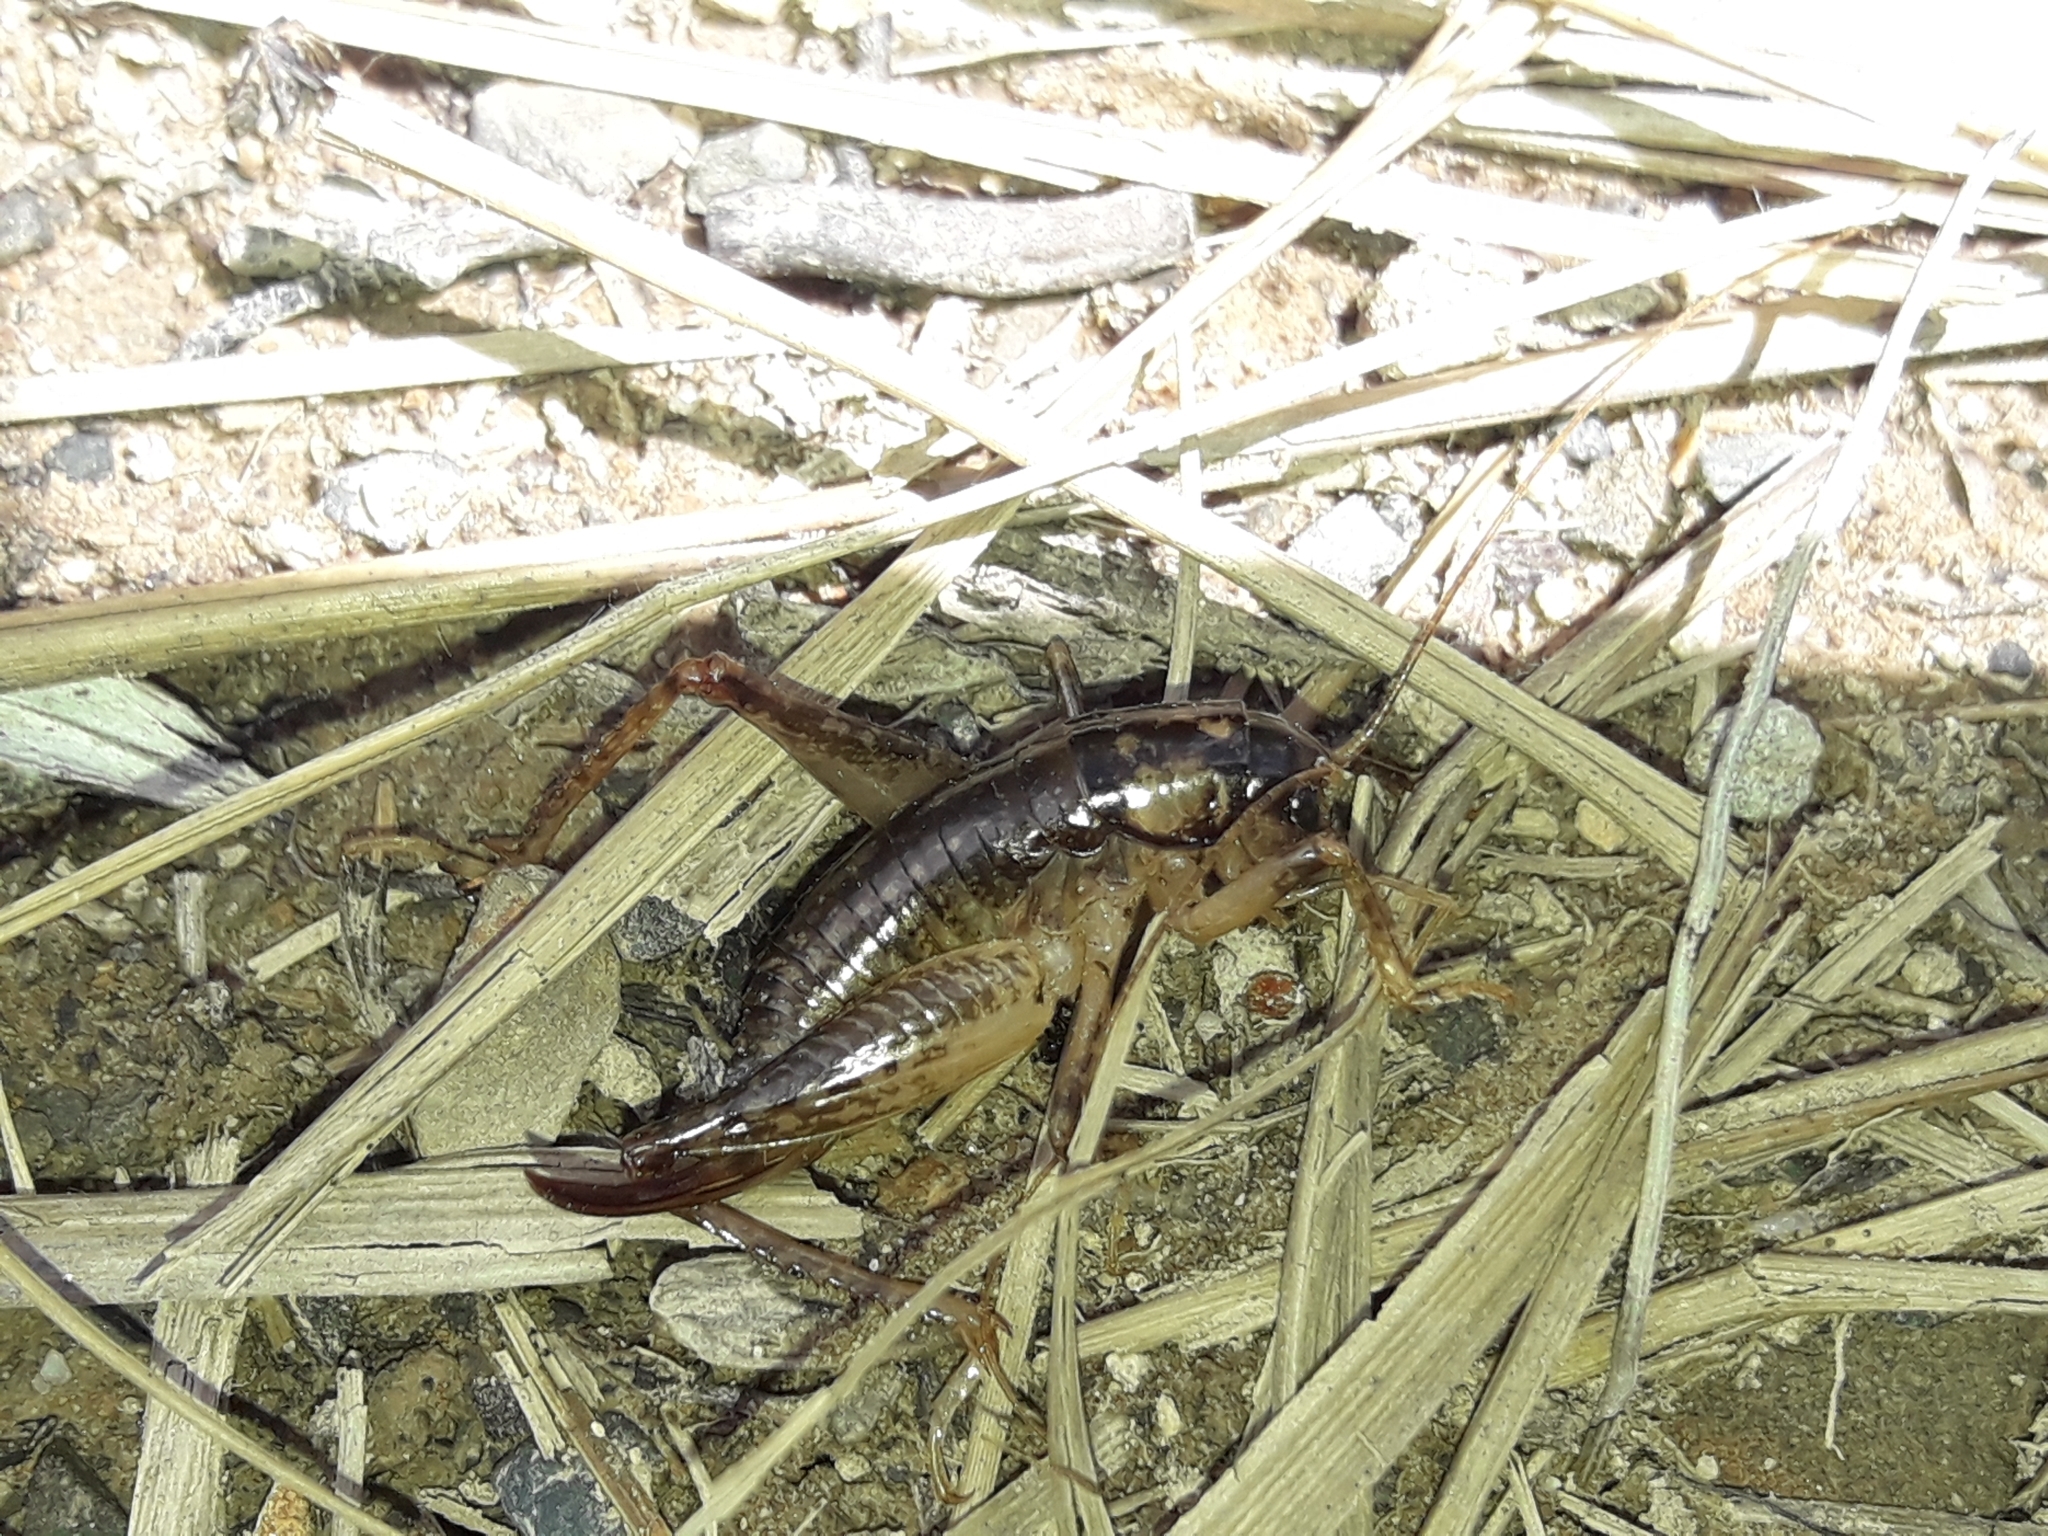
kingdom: Animalia
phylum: Arthropoda
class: Insecta
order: Orthoptera
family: Anostostomatidae
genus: Hemiandrus
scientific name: Hemiandrus luna
